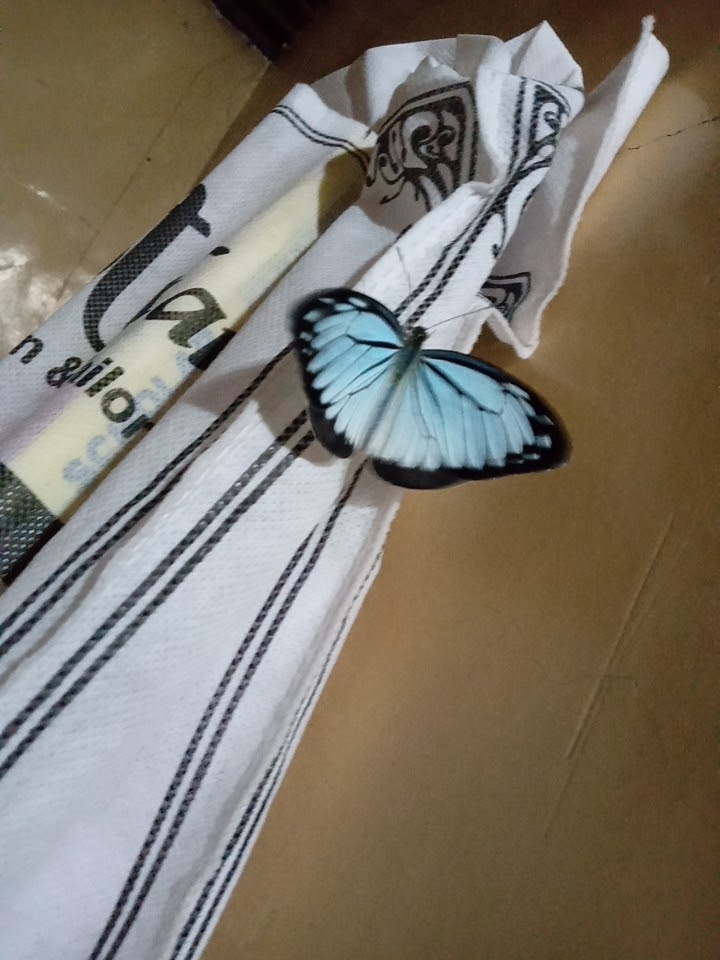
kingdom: Animalia
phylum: Arthropoda
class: Insecta
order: Lepidoptera
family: Pieridae
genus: Pareronia
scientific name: Pareronia hippia
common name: Indian wanderer
